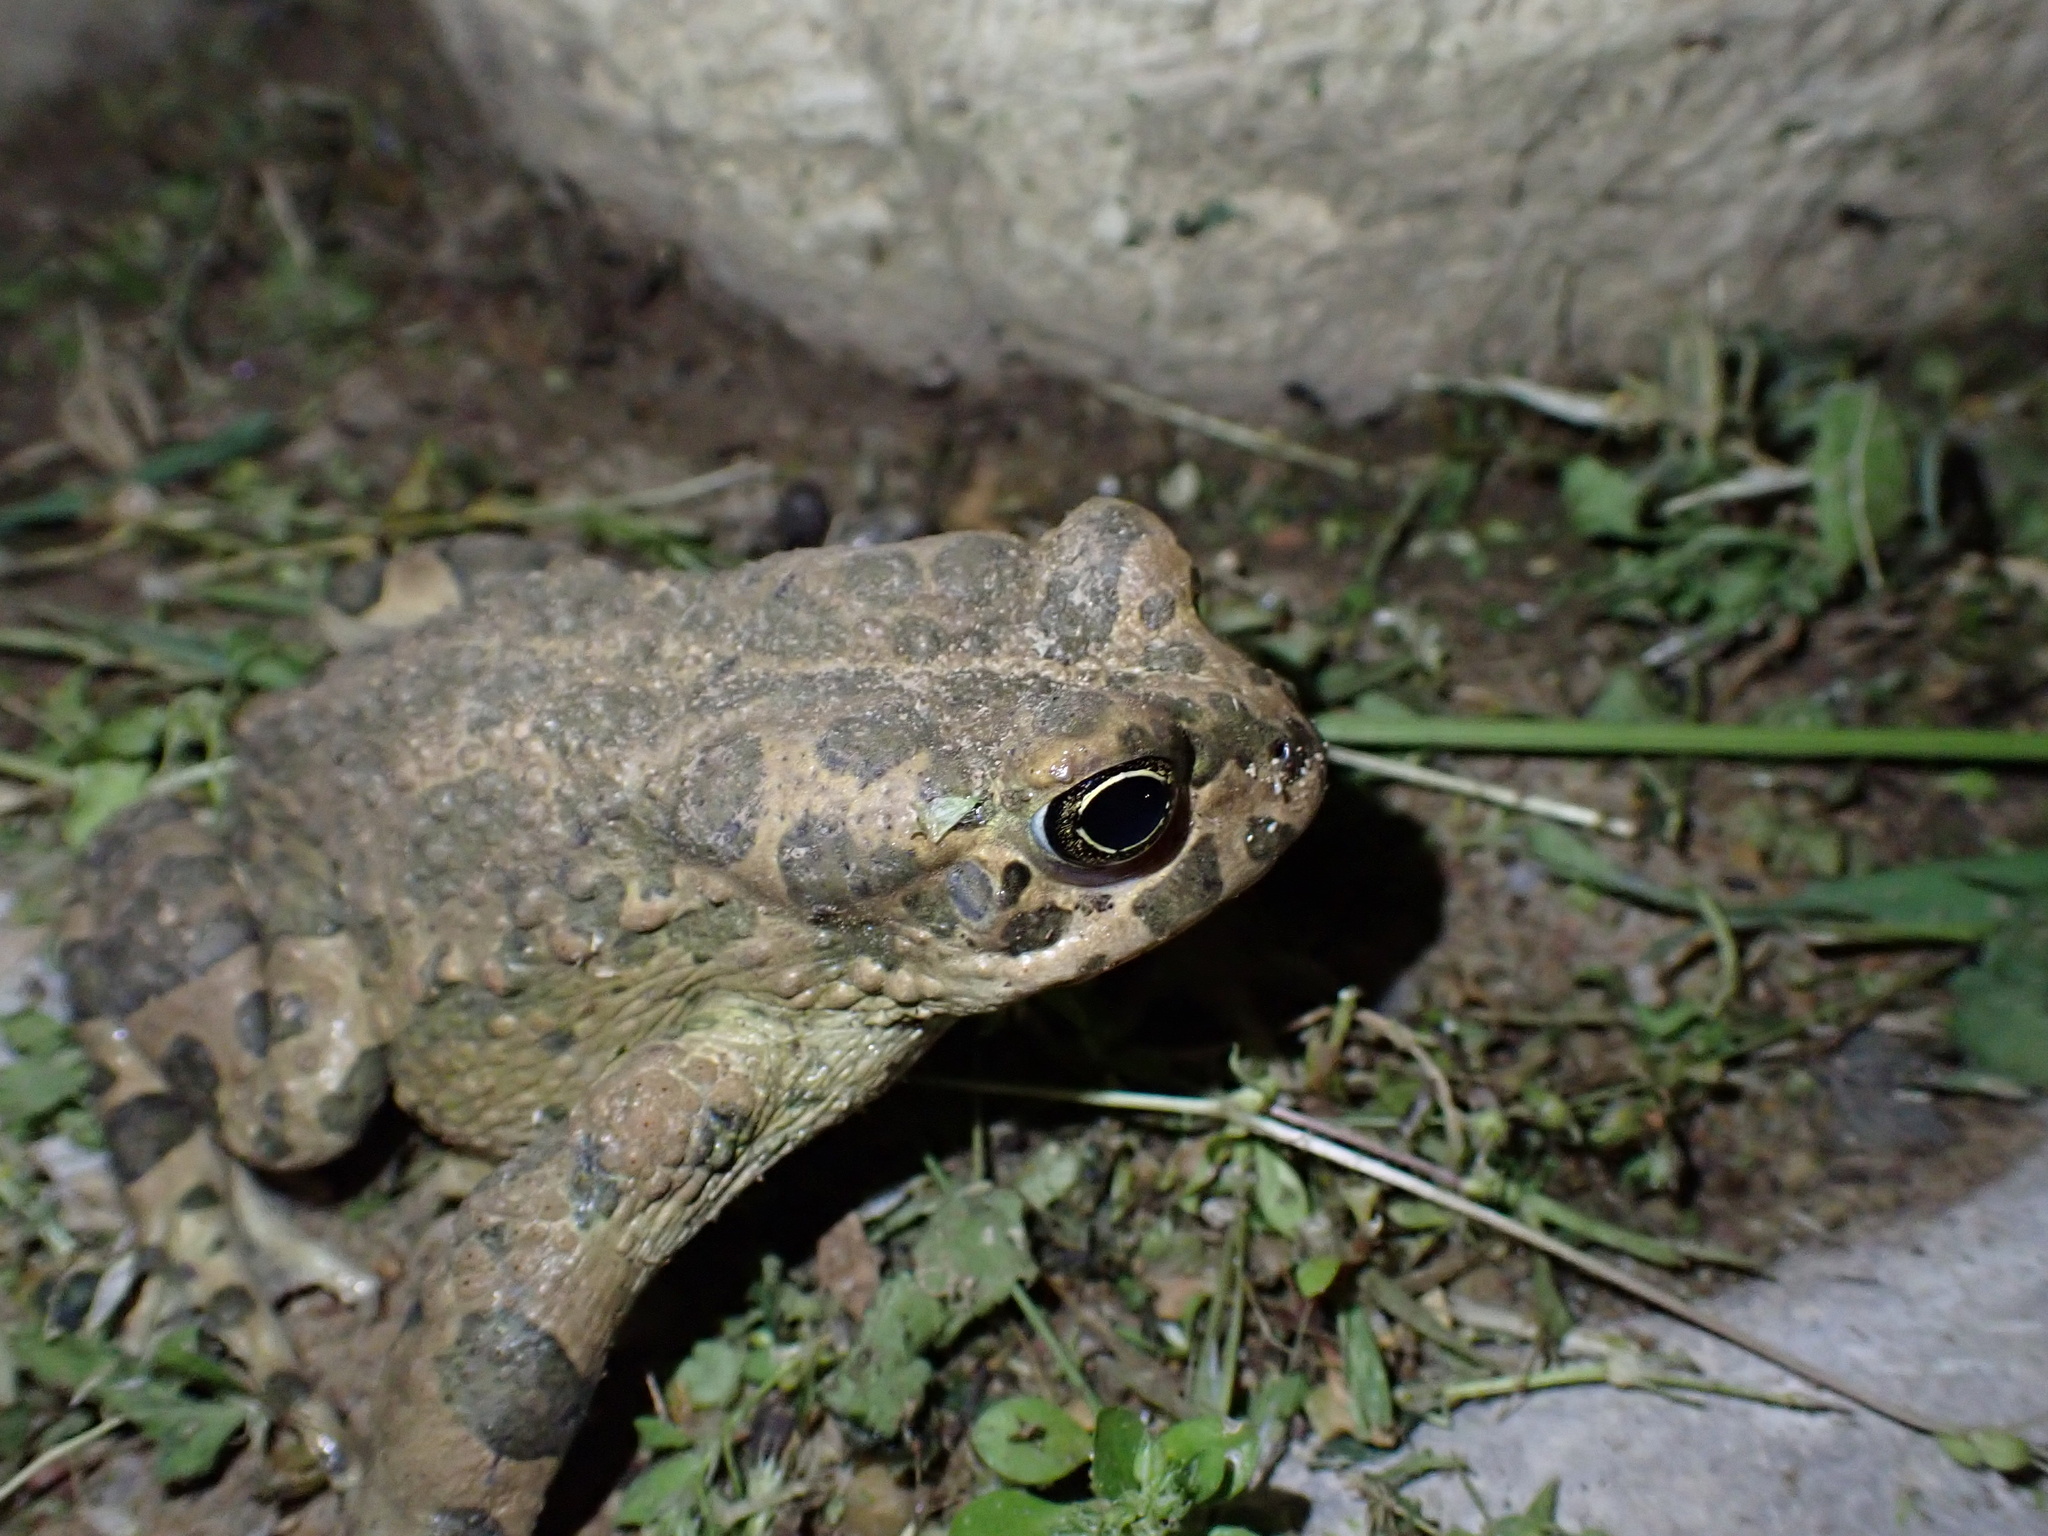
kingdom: Animalia
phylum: Chordata
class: Amphibia
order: Anura
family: Bufonidae
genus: Bufotes
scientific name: Bufotes viridis
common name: European green toad
